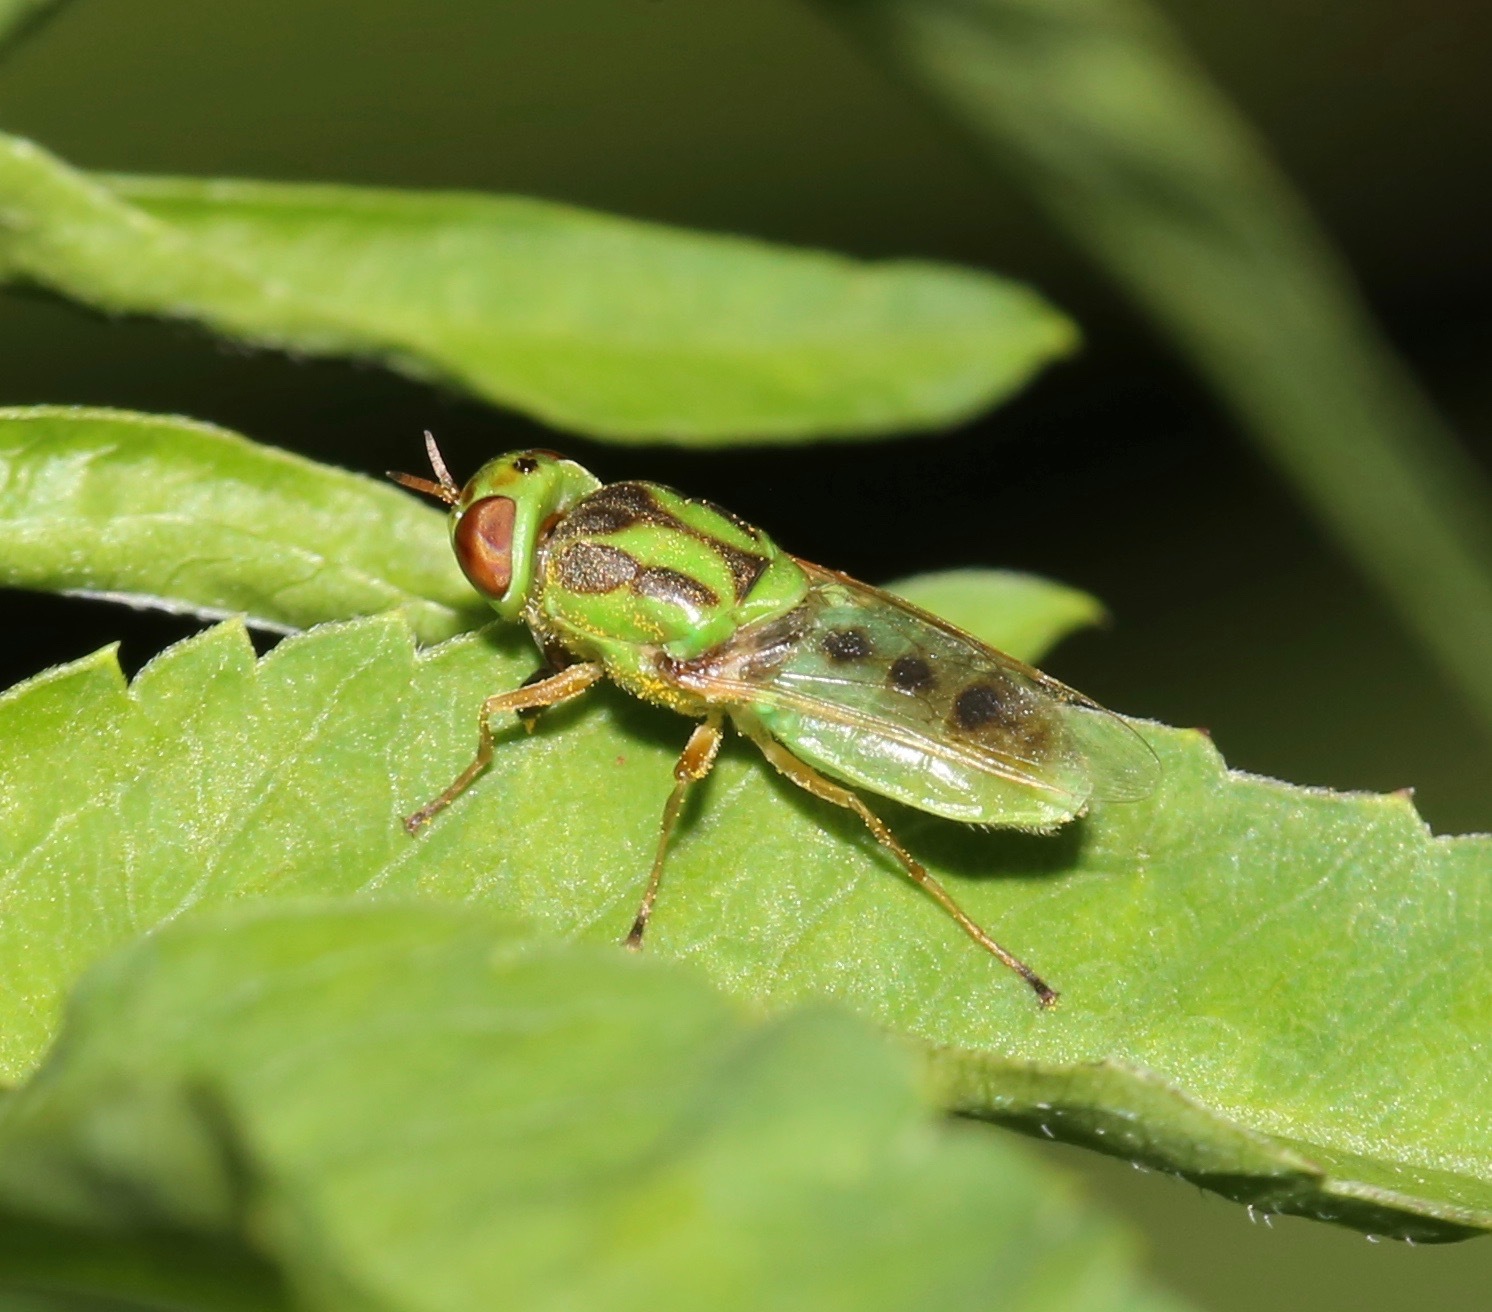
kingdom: Animalia
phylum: Arthropoda
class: Insecta
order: Diptera
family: Stratiomyidae
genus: Hedriodiscus
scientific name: Hedriodiscus trivittatus
